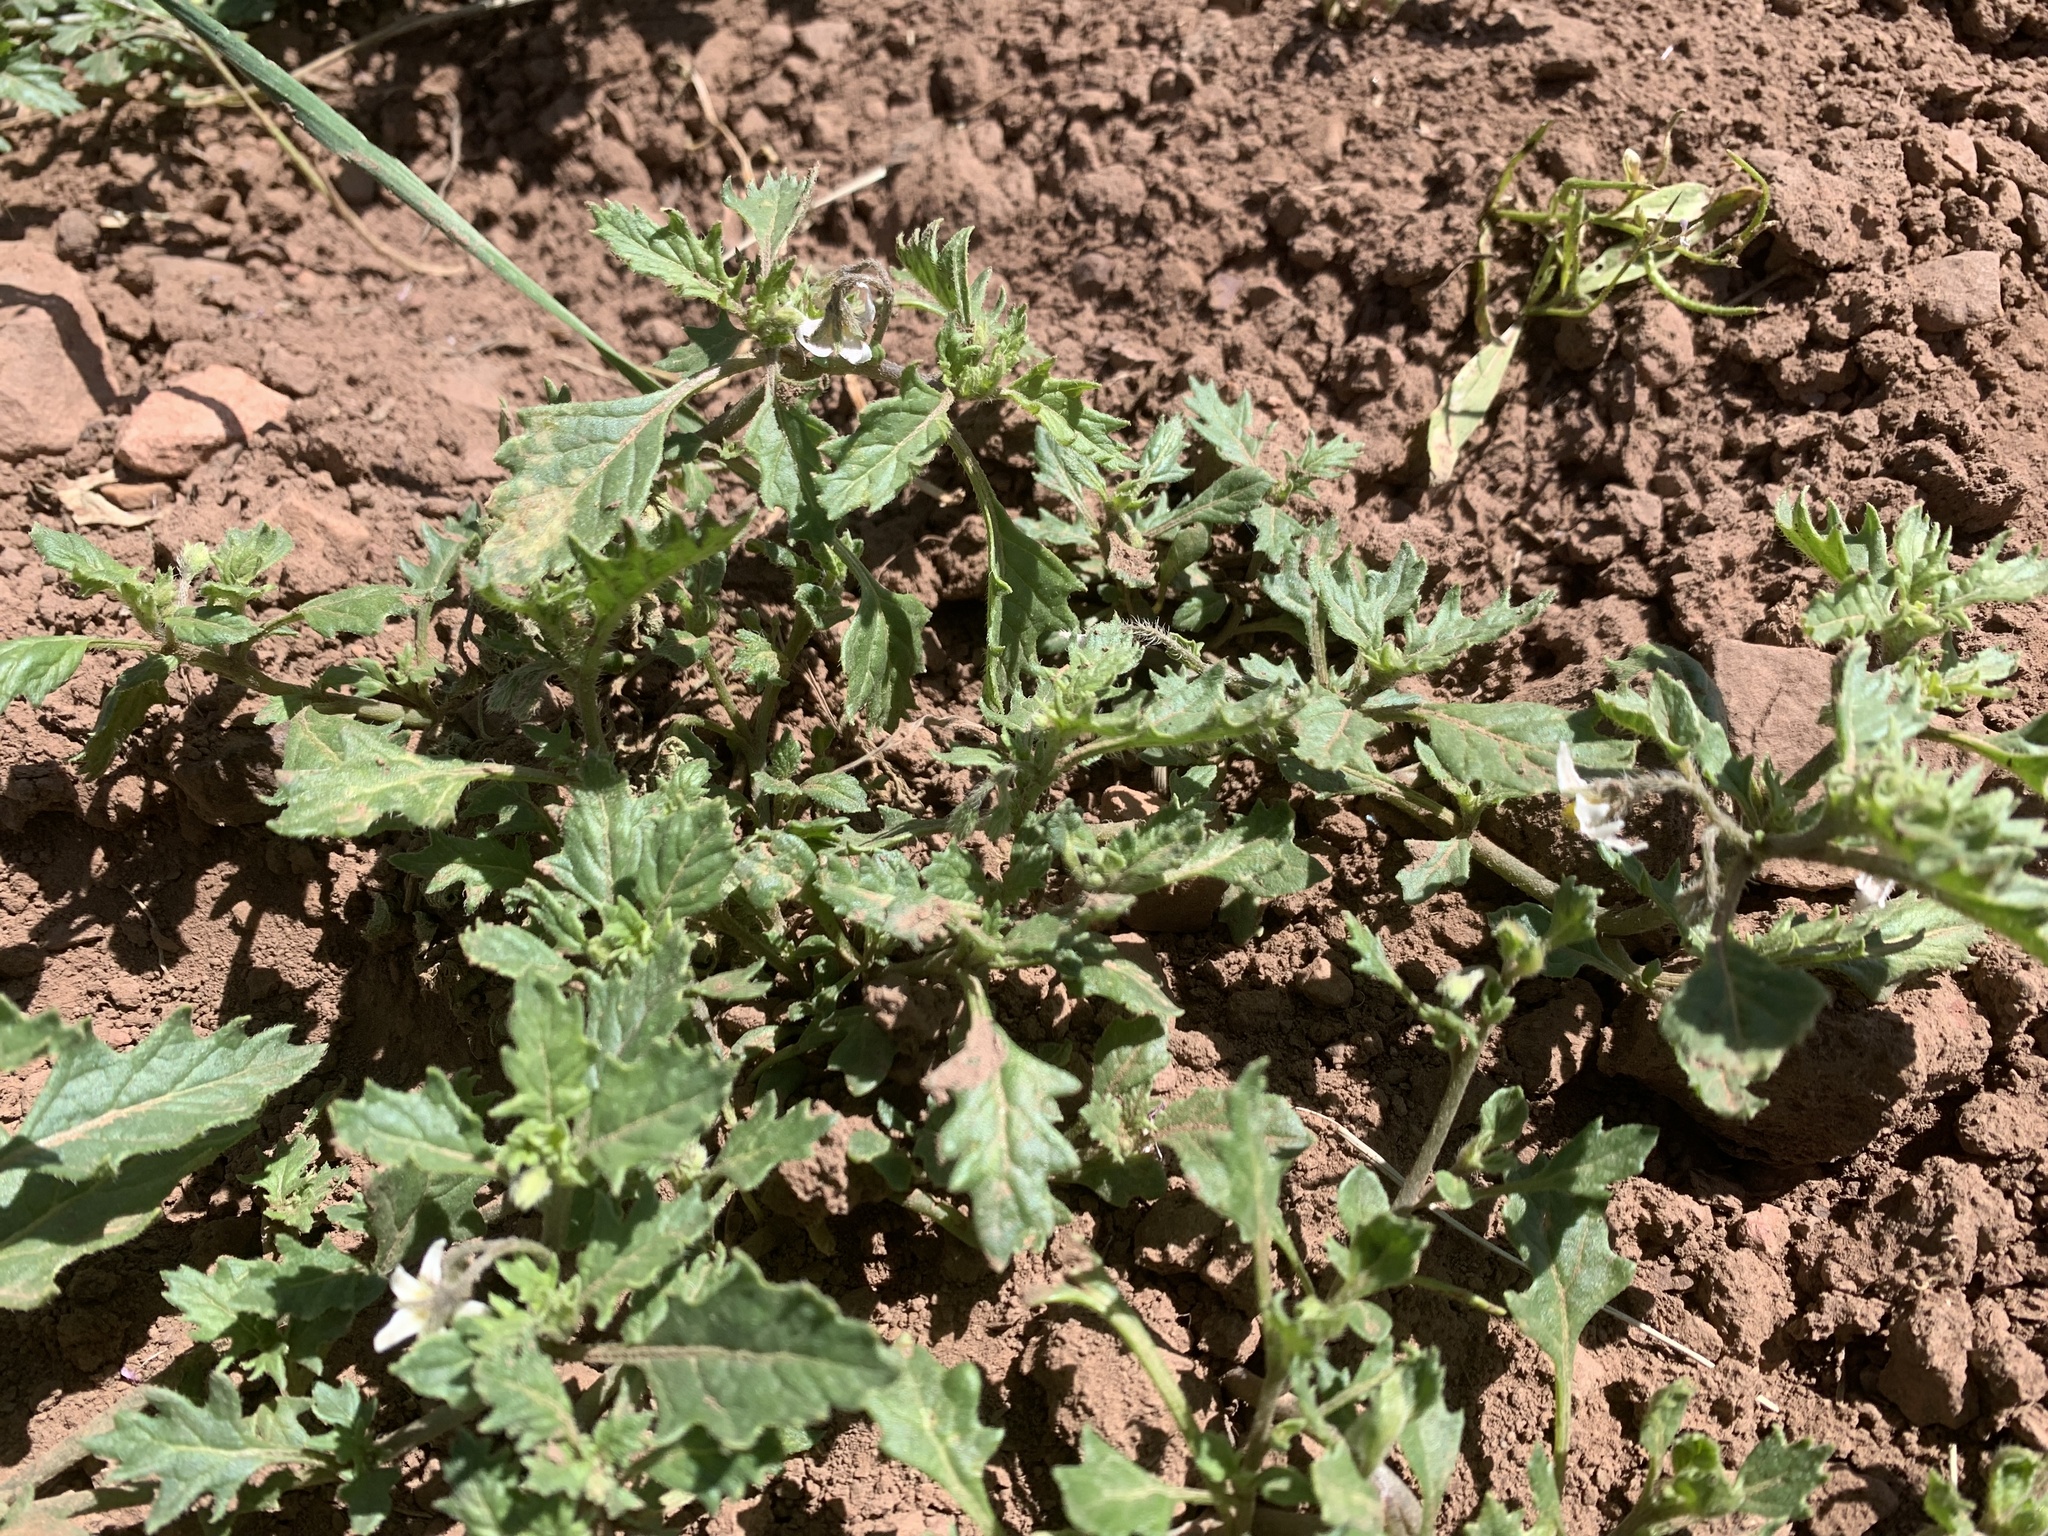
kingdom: Plantae
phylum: Tracheophyta
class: Magnoliopsida
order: Solanales
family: Solanaceae
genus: Solanum
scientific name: Solanum triflorum
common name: Small nightshade
